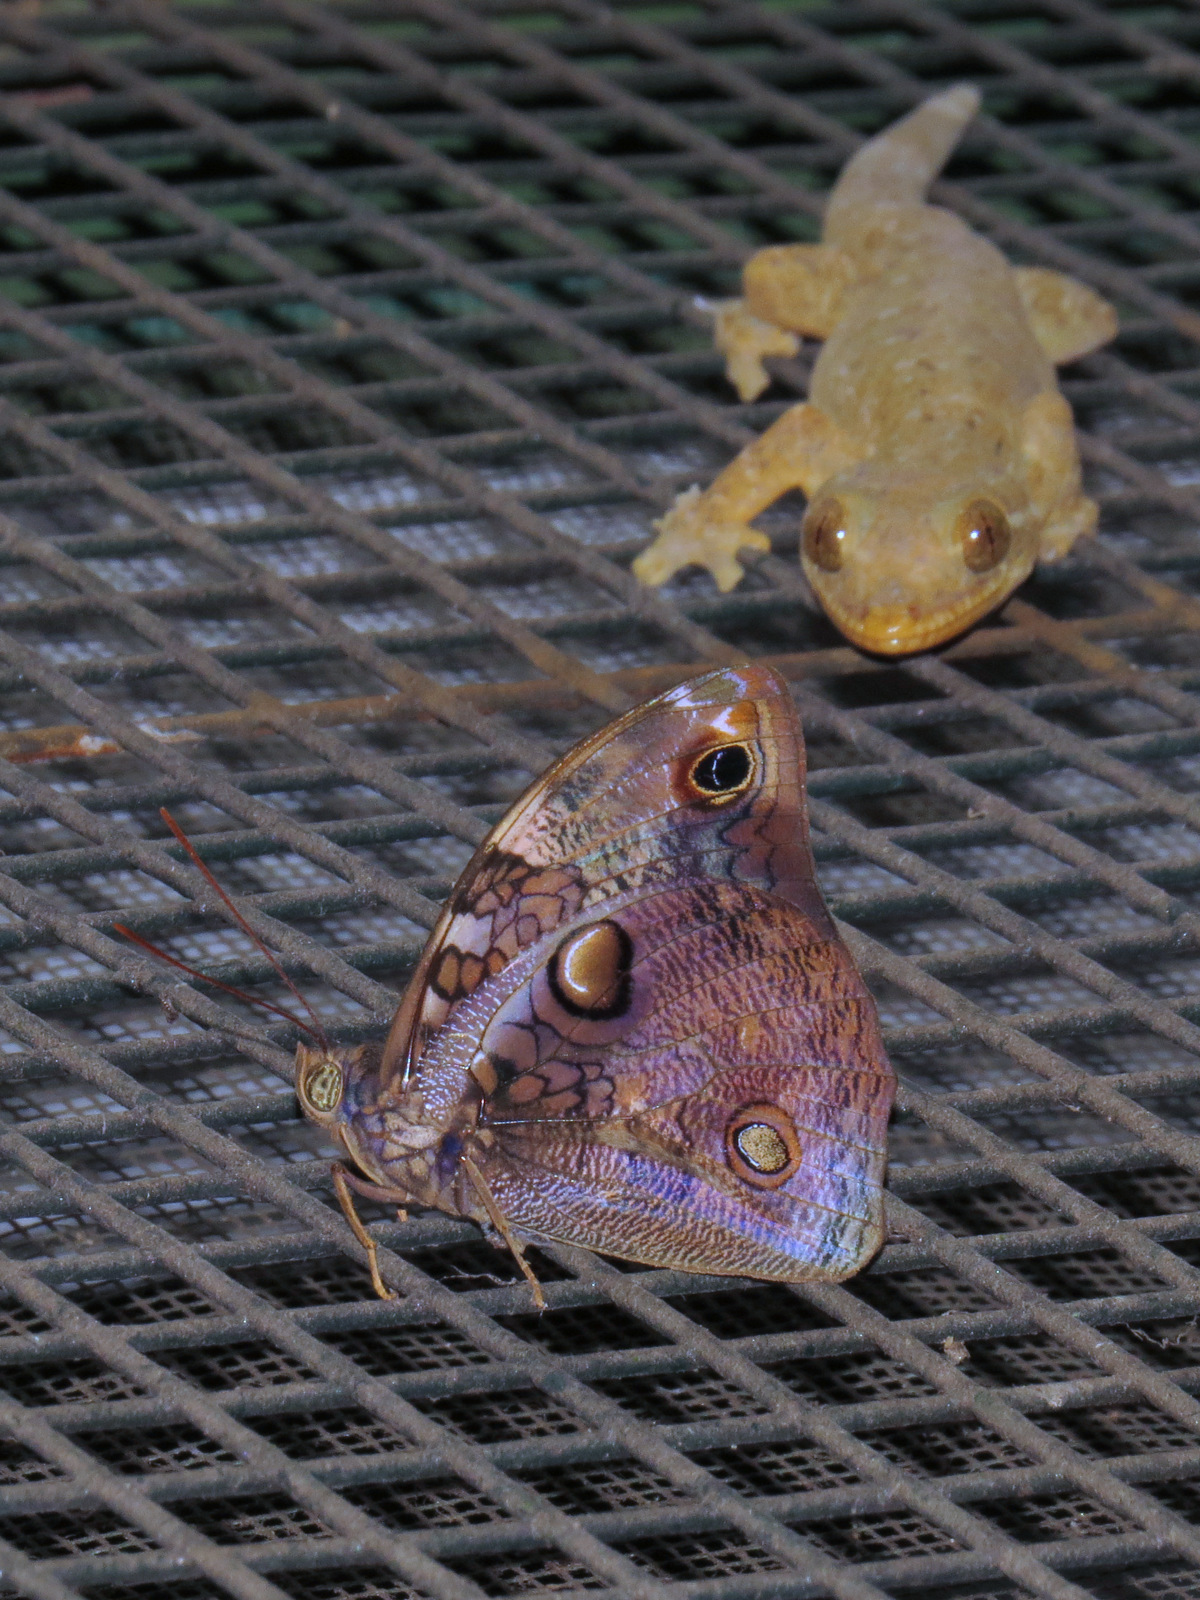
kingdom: Animalia
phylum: Chordata
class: Squamata
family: Phyllodactylidae
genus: Thecadactylus
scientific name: Thecadactylus rapicauda
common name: Turnip-tailed gecko
